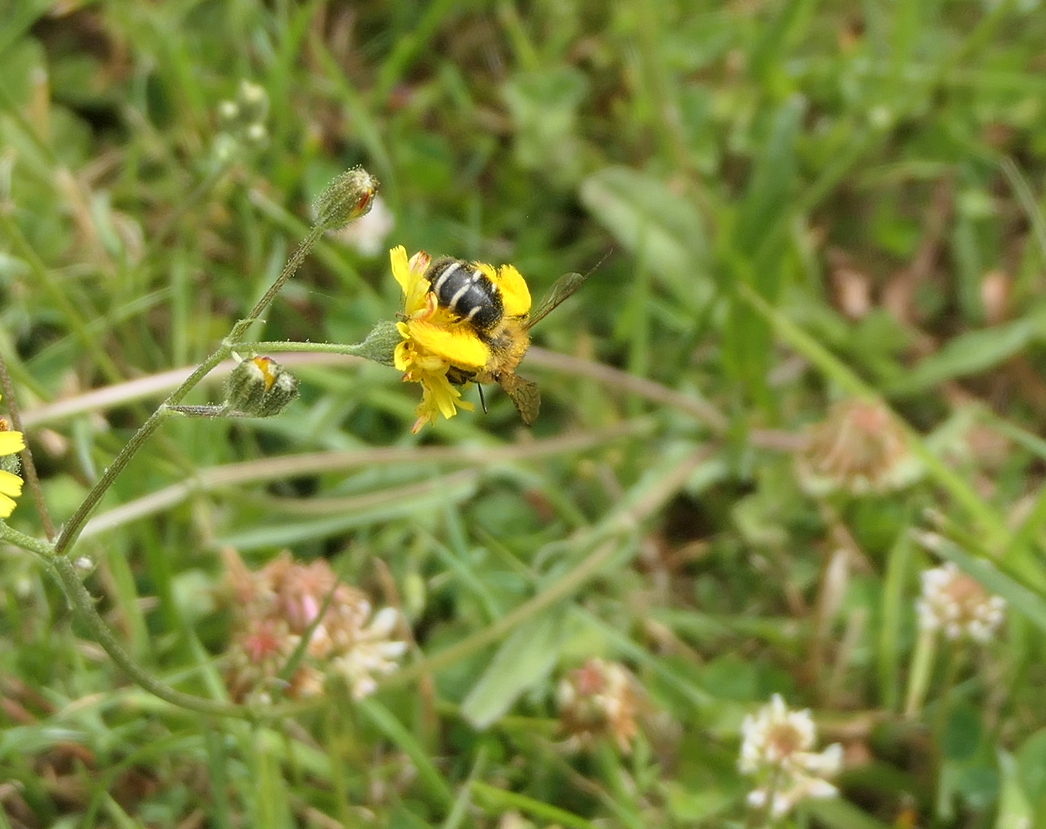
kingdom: Animalia
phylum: Arthropoda
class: Insecta
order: Hymenoptera
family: Melittidae
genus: Dasypoda
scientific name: Dasypoda hirtipes
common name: Pantaloon bee
